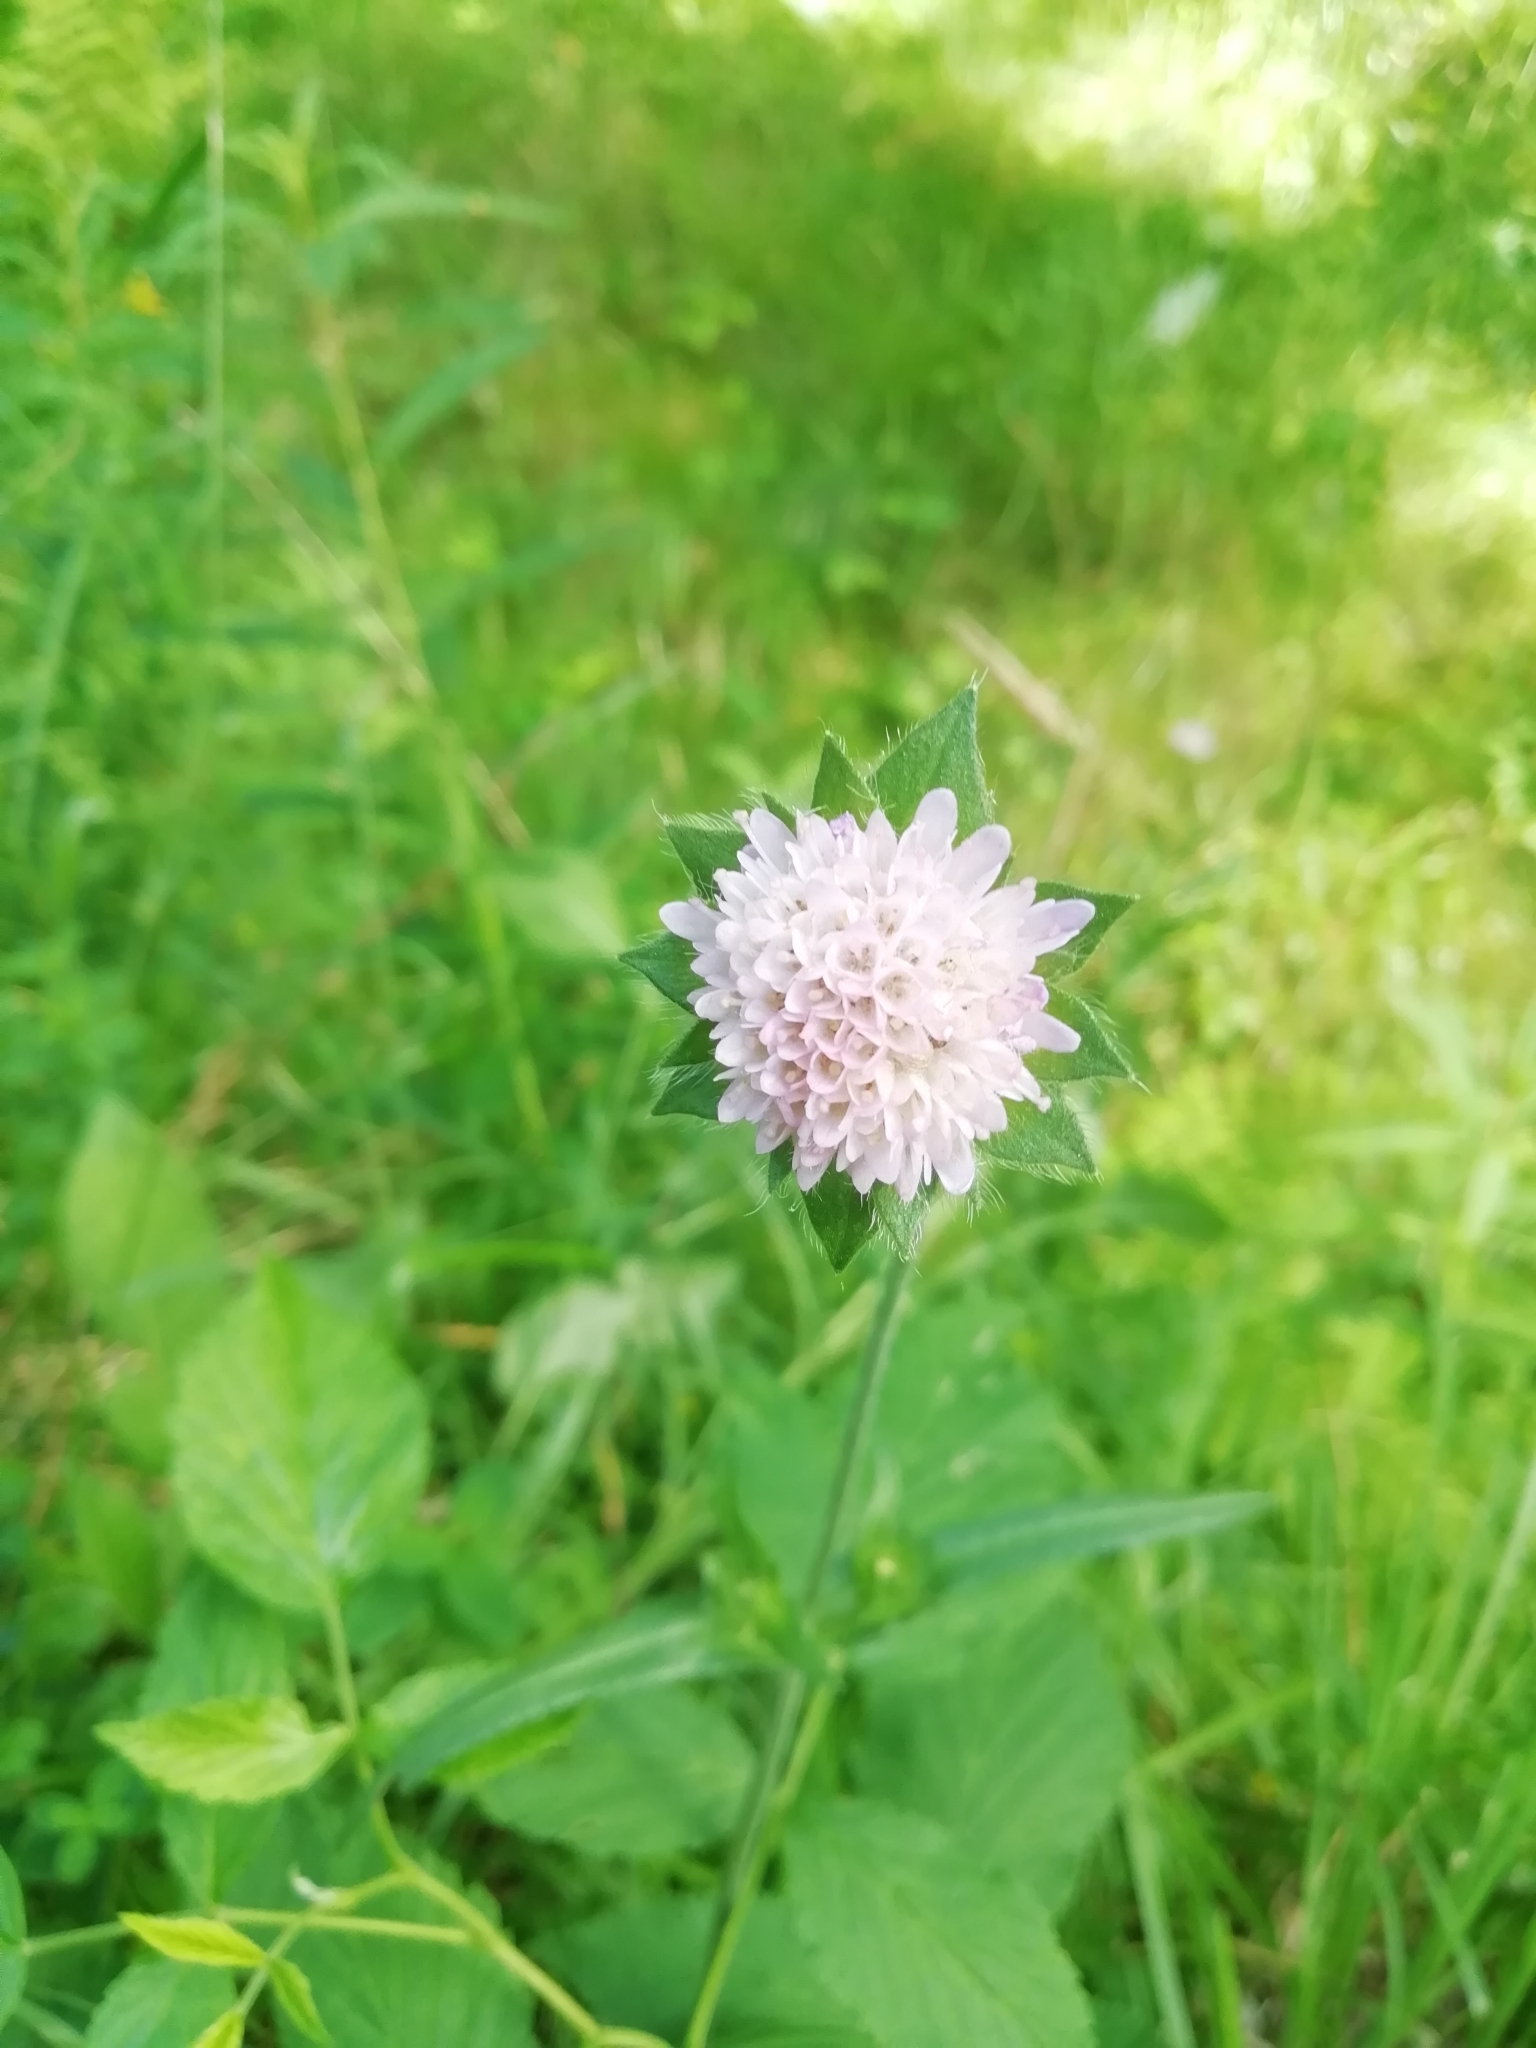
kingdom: Plantae
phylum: Tracheophyta
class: Magnoliopsida
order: Dipsacales
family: Caprifoliaceae
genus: Knautia
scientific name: Knautia arvensis
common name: Field scabiosa
